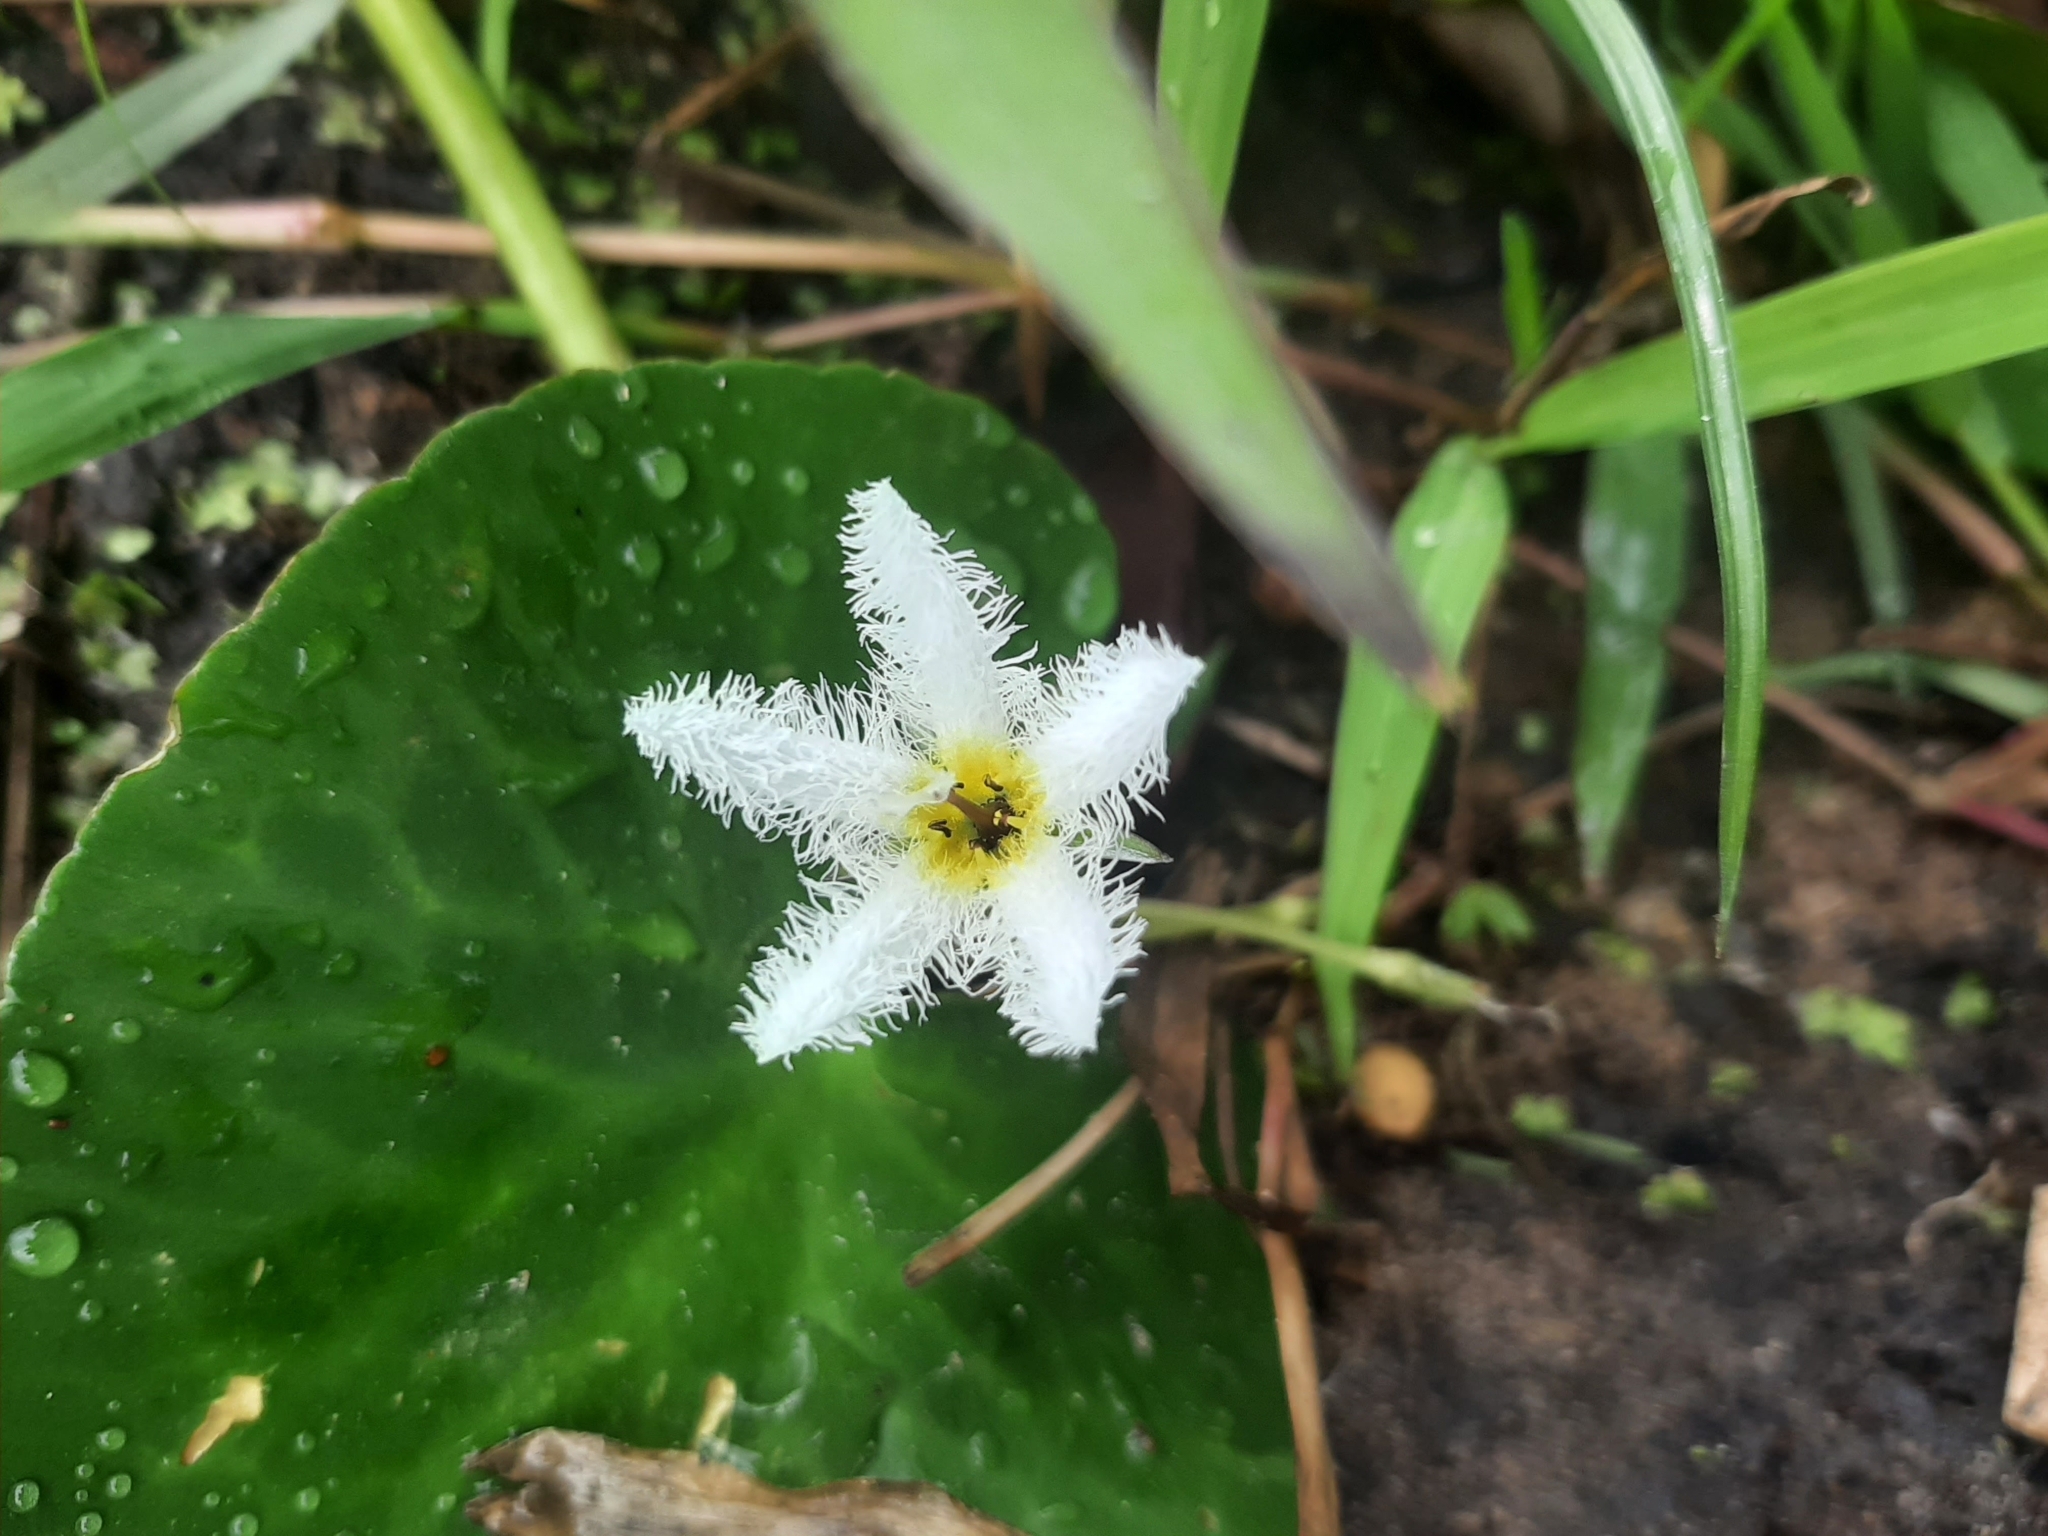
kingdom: Plantae
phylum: Tracheophyta
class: Magnoliopsida
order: Asterales
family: Menyanthaceae
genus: Nymphoides
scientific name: Nymphoides humboldtiana
